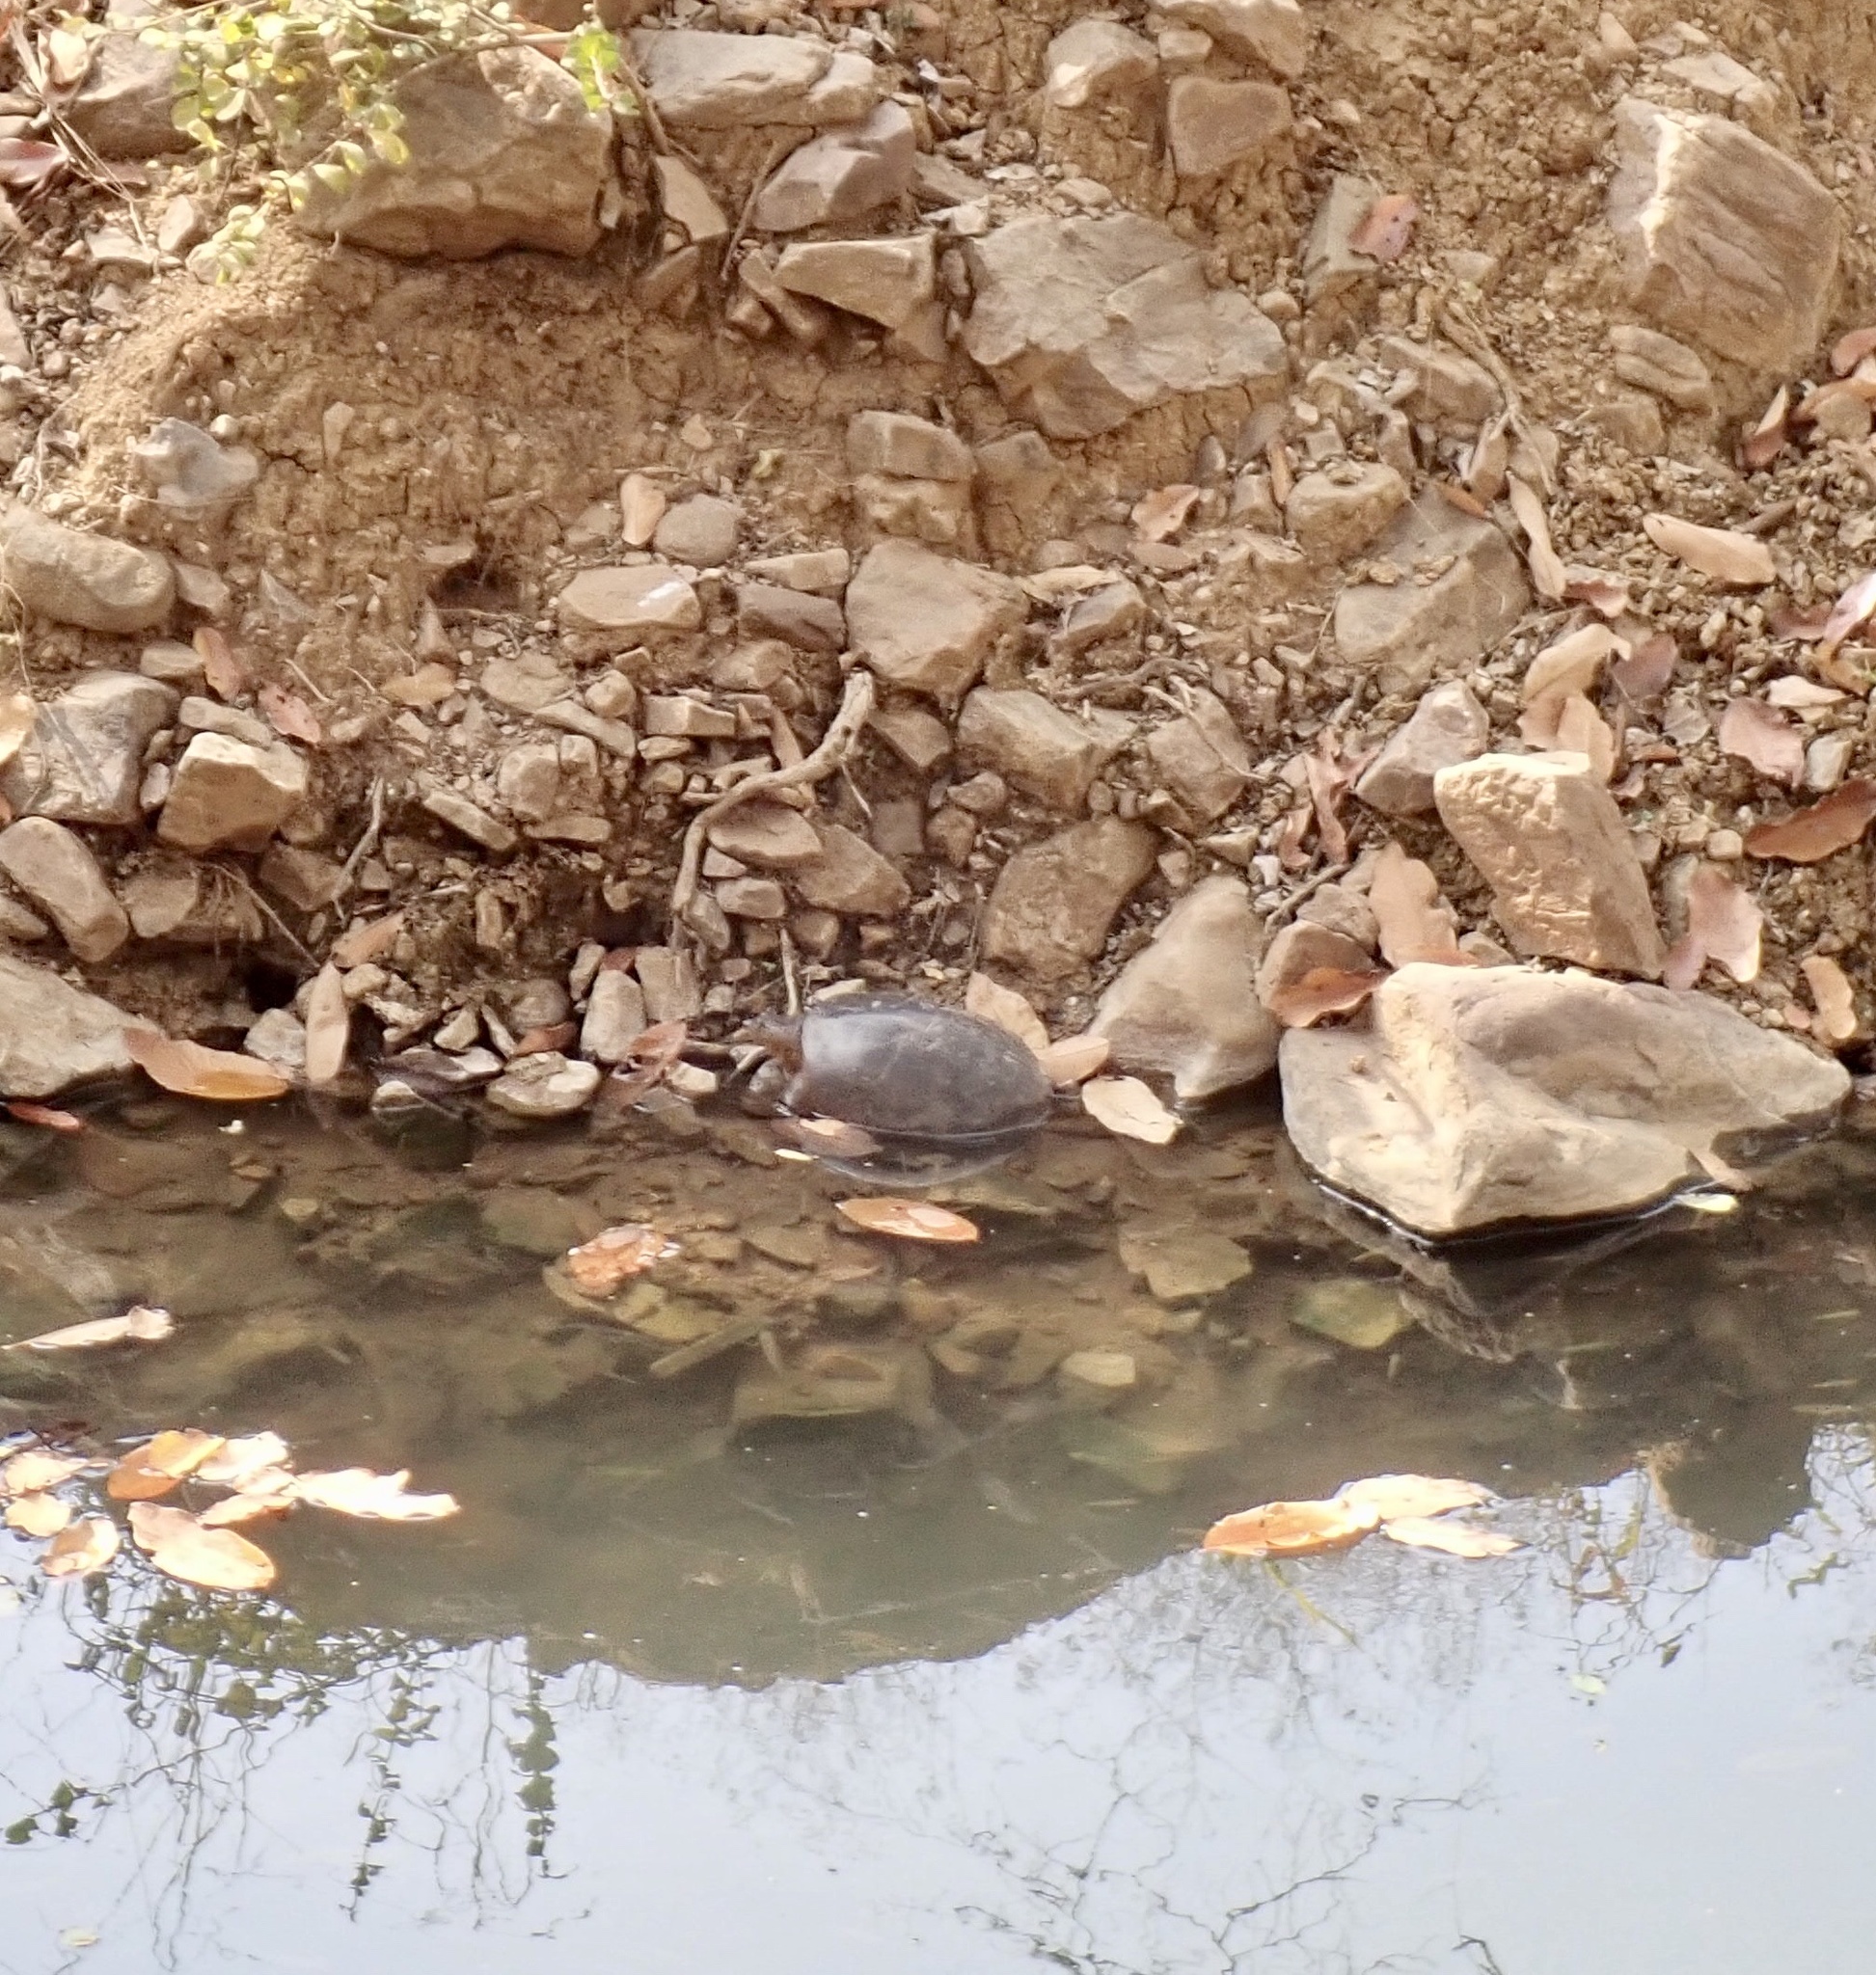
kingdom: Animalia
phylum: Chordata
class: Testudines
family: Trionychidae
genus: Lissemys
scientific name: Lissemys punctata
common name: Indian flap-shelled turtle
